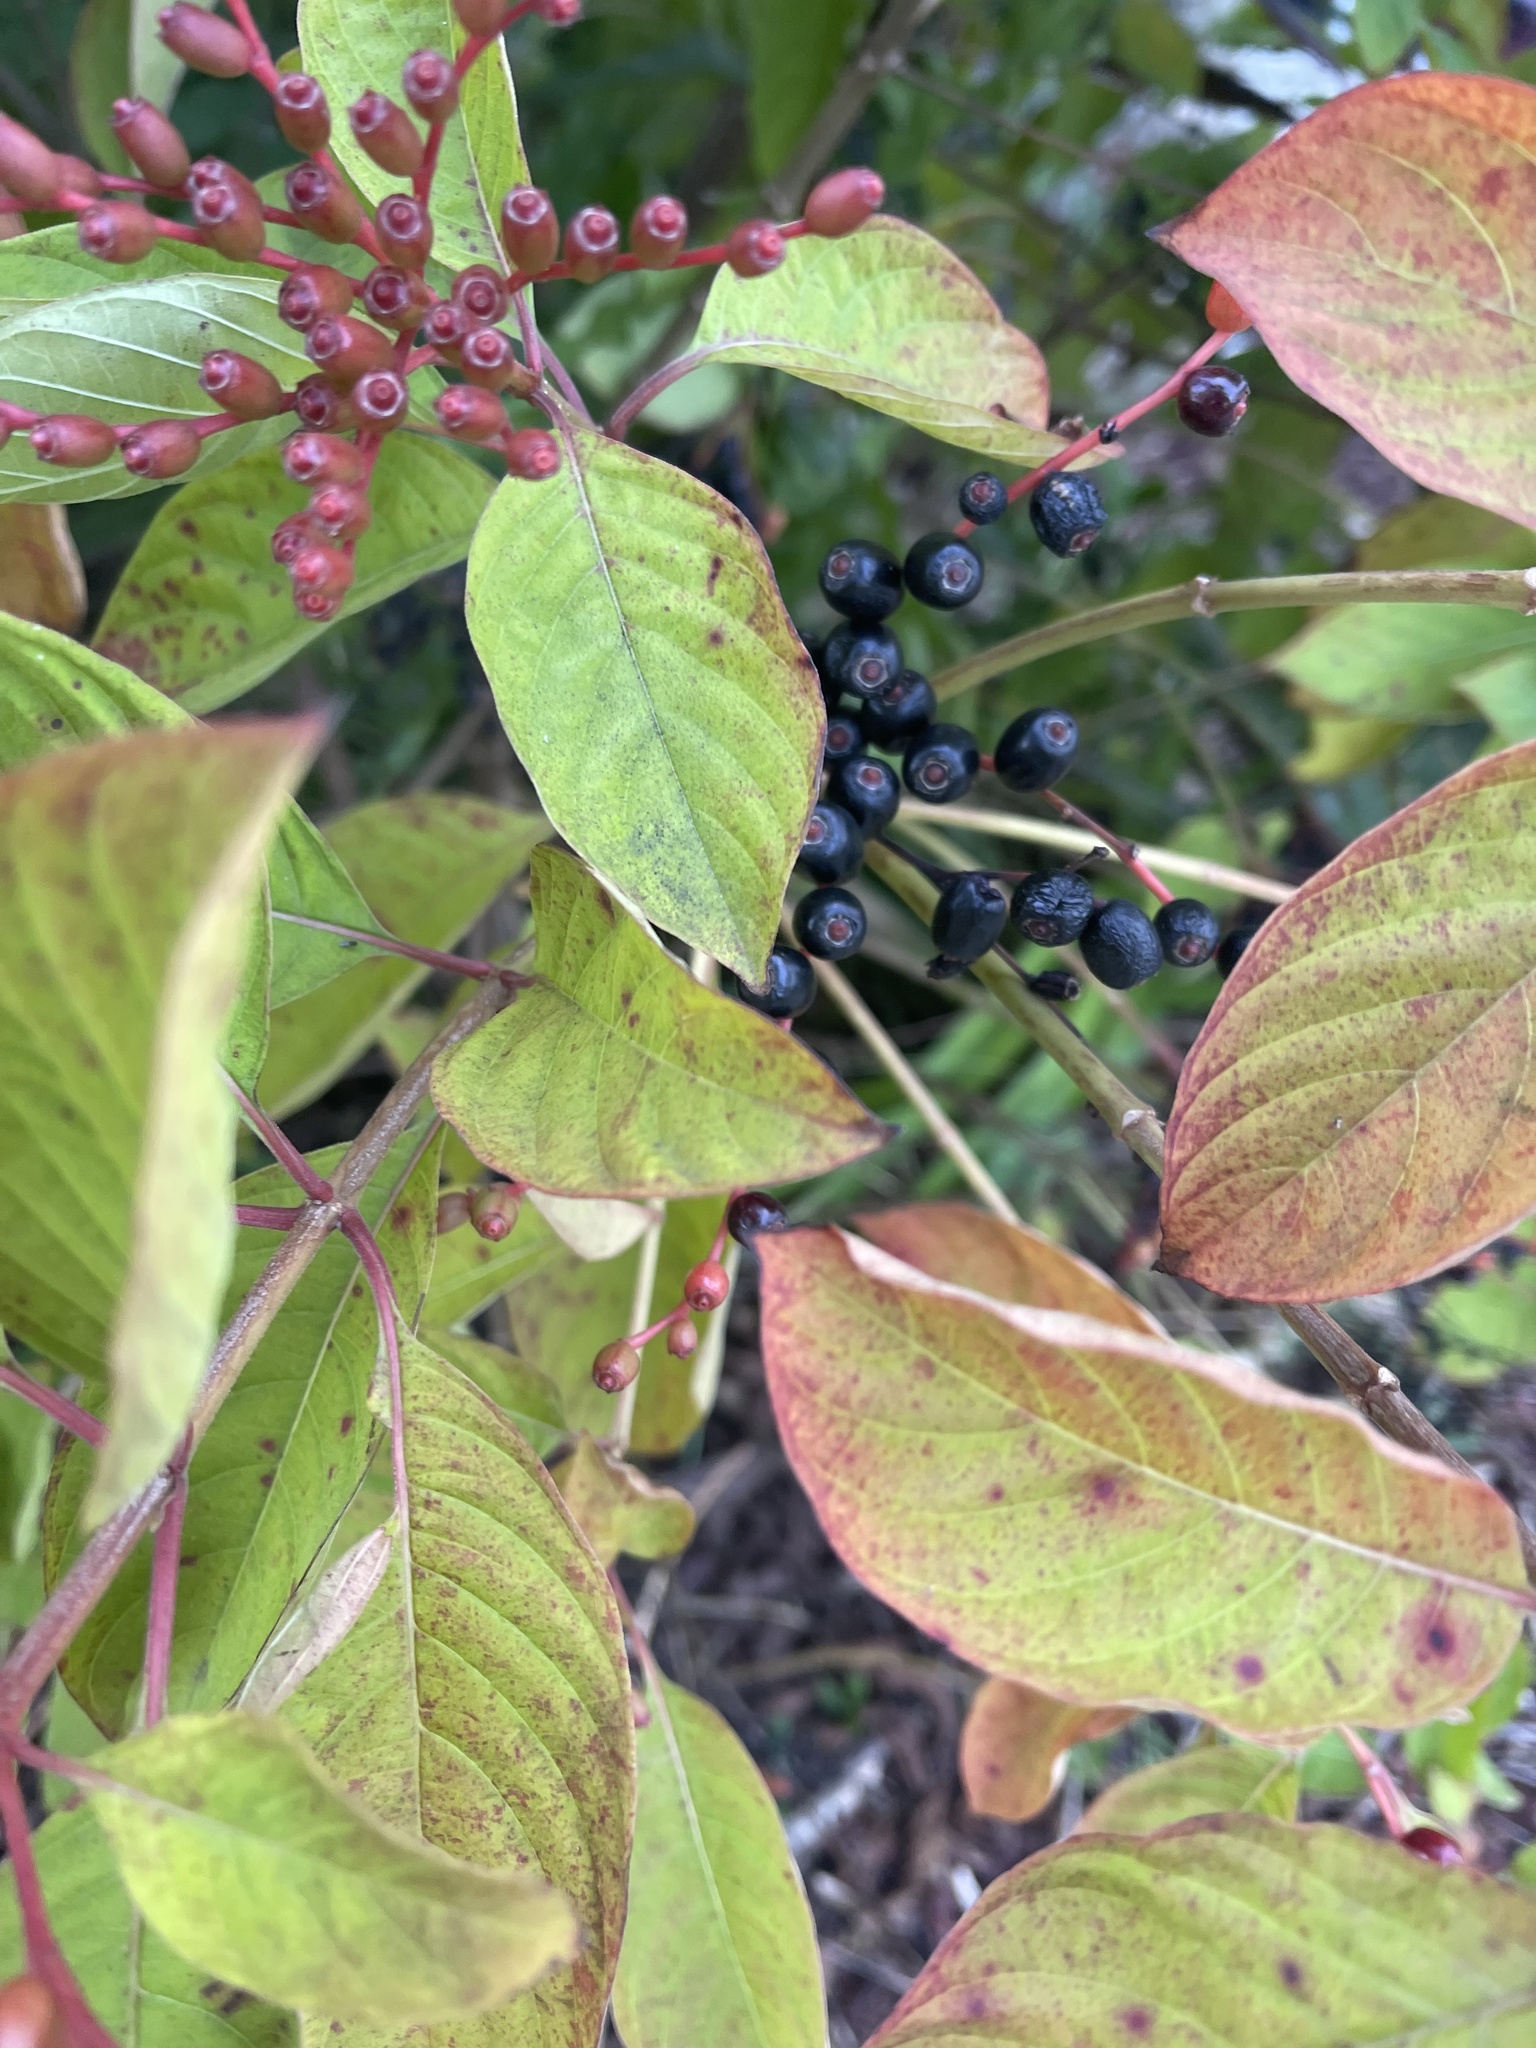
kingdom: Plantae
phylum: Tracheophyta
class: Magnoliopsida
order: Gentianales
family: Rubiaceae
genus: Hamelia
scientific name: Hamelia patens
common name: Redhead
